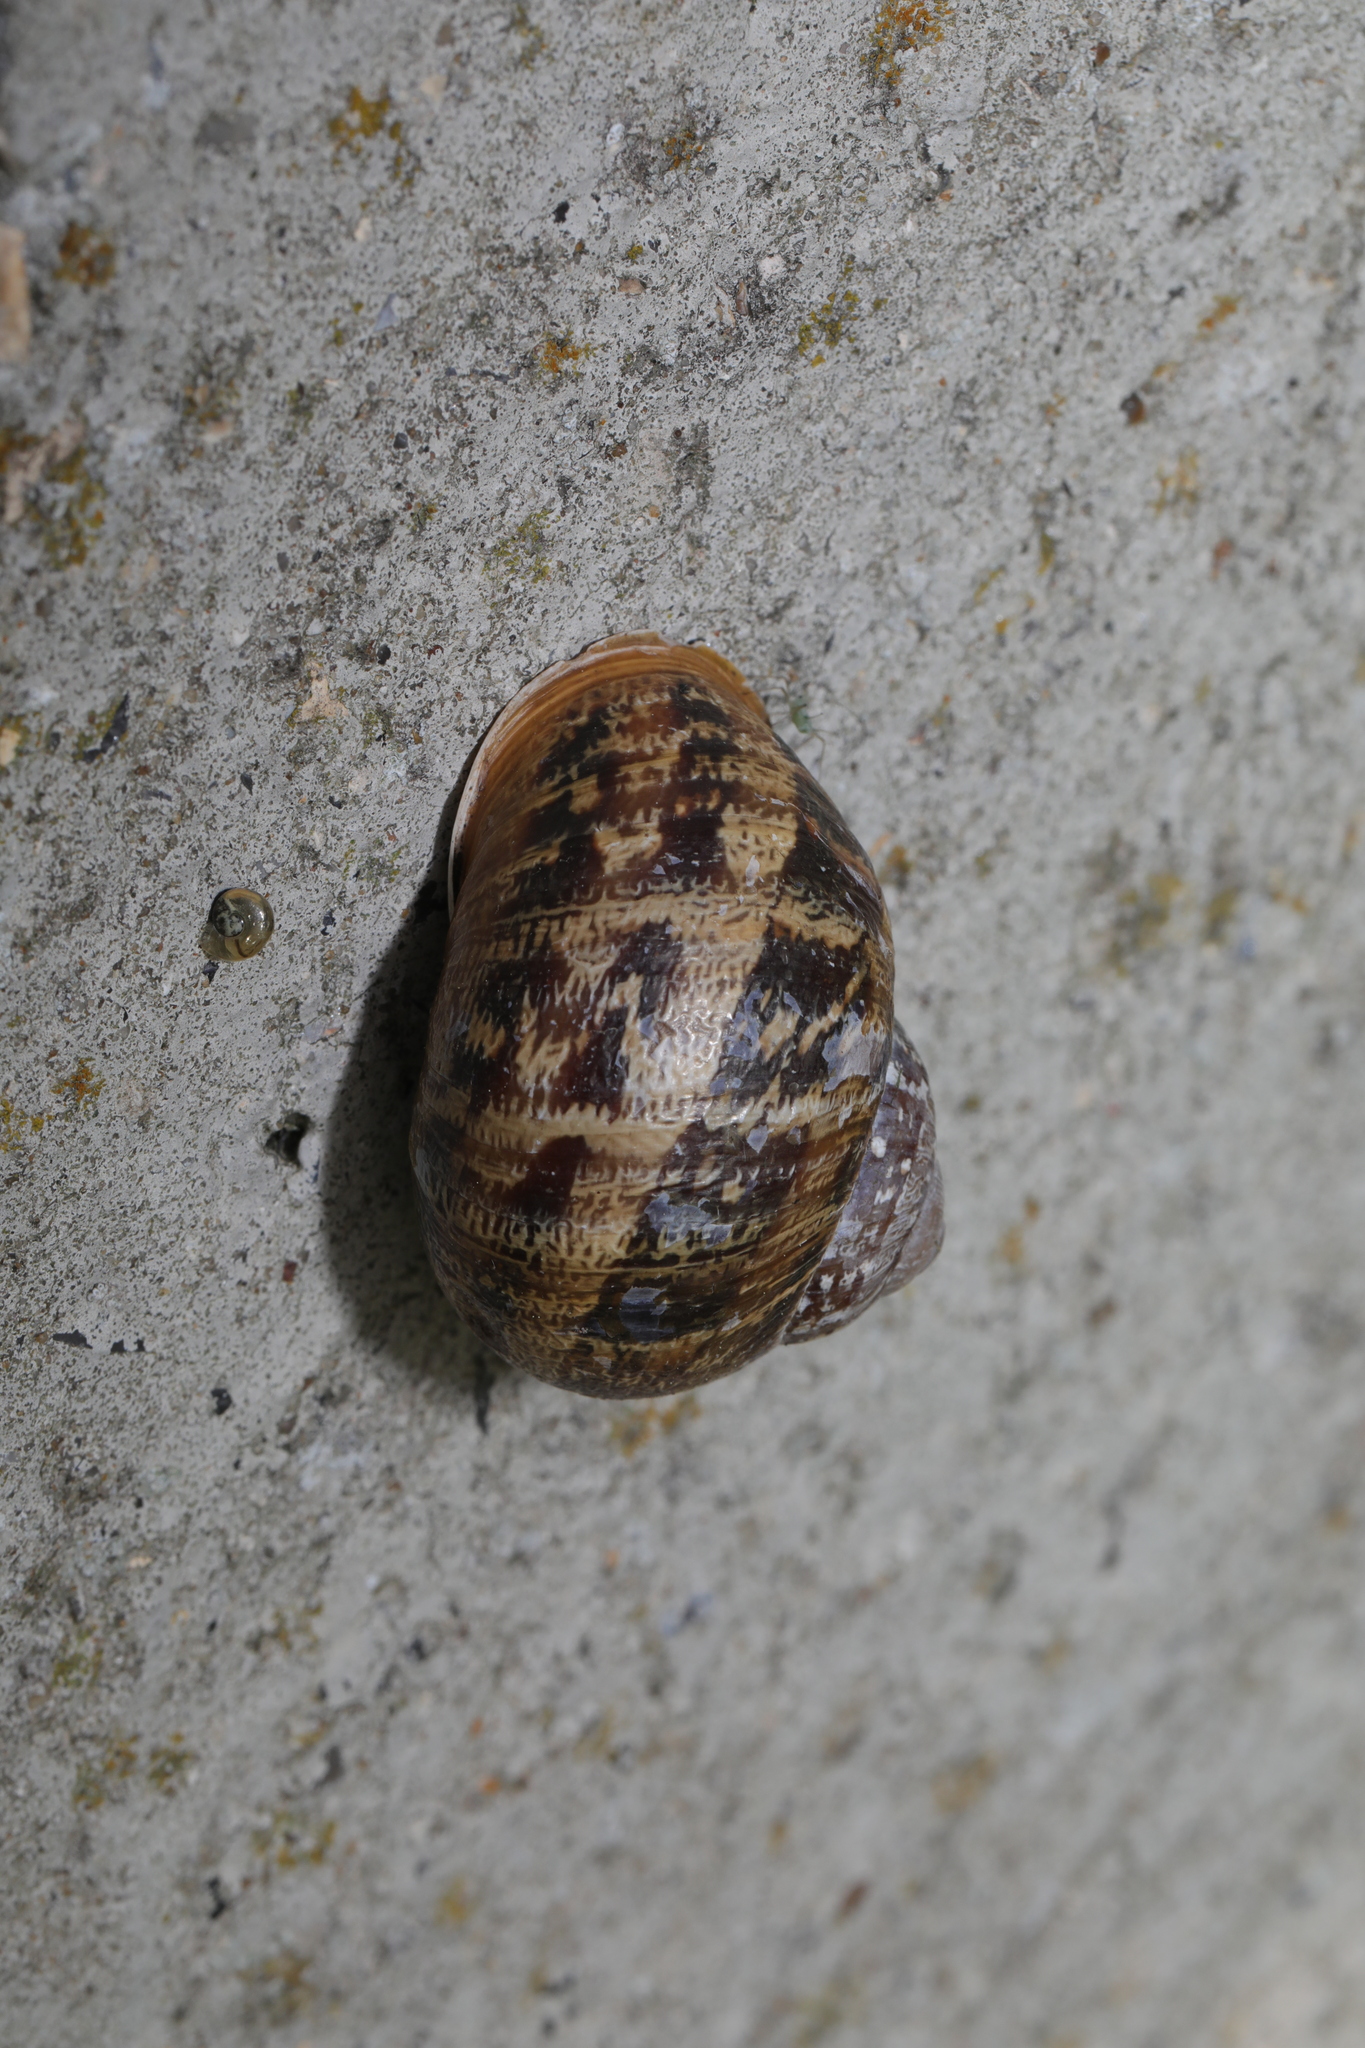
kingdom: Animalia
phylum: Mollusca
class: Gastropoda
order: Stylommatophora
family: Helicidae
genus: Cornu
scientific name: Cornu aspersum
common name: Brown garden snail
